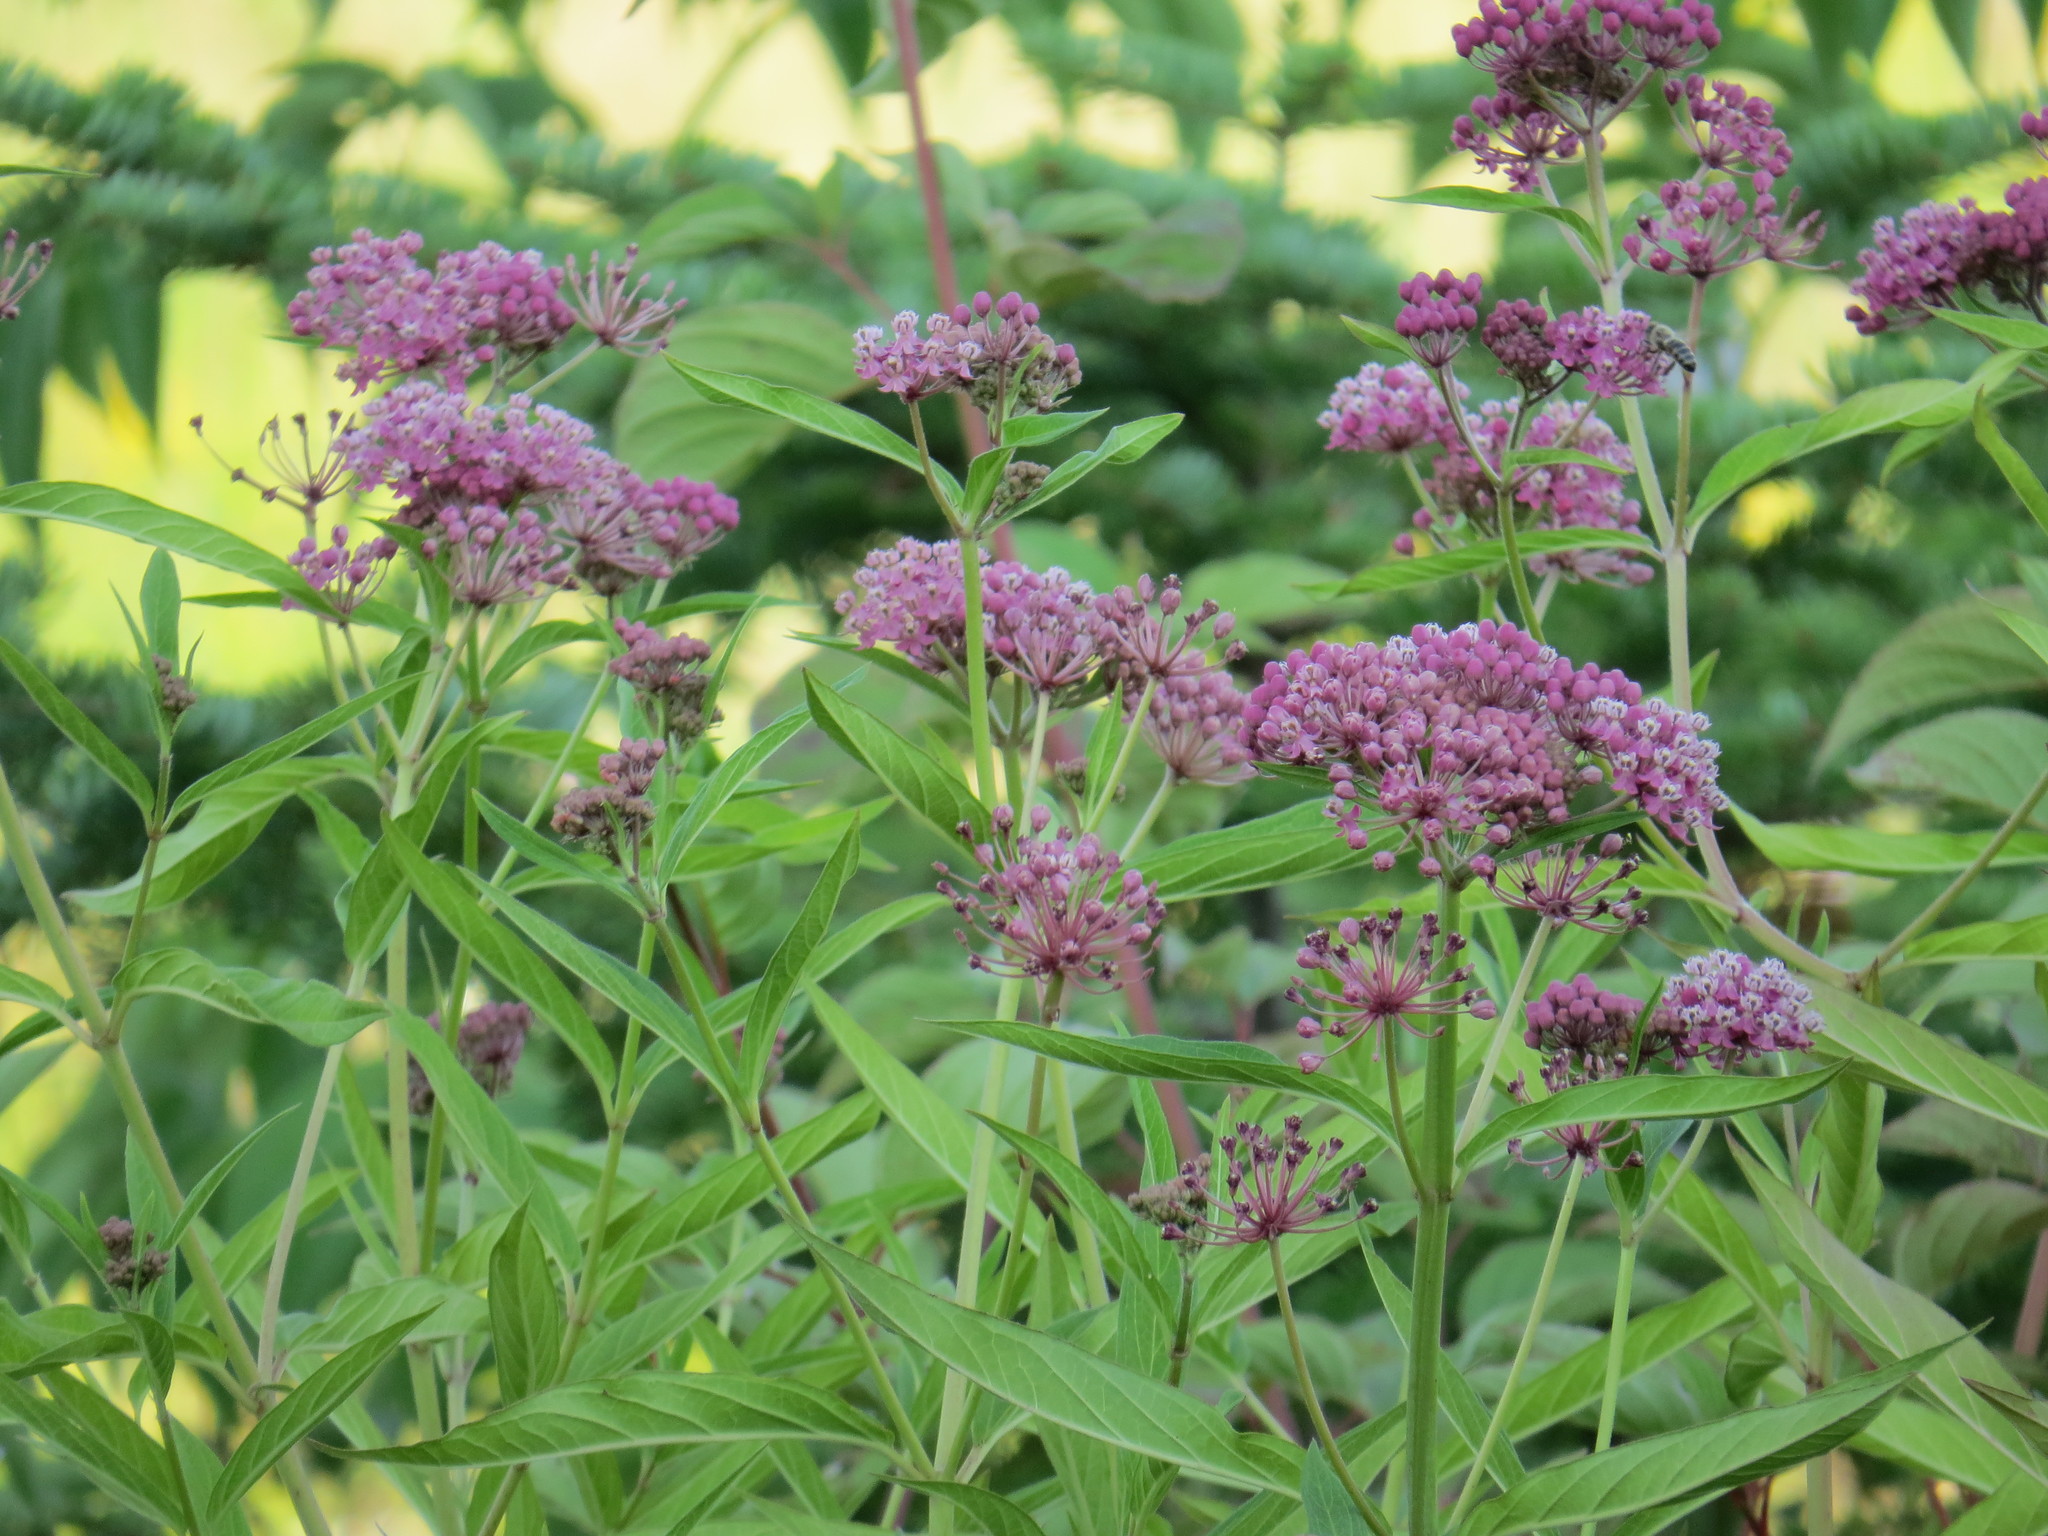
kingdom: Plantae
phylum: Tracheophyta
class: Magnoliopsida
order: Gentianales
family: Apocynaceae
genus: Asclepias
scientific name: Asclepias incarnata
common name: Swamp milkweed
